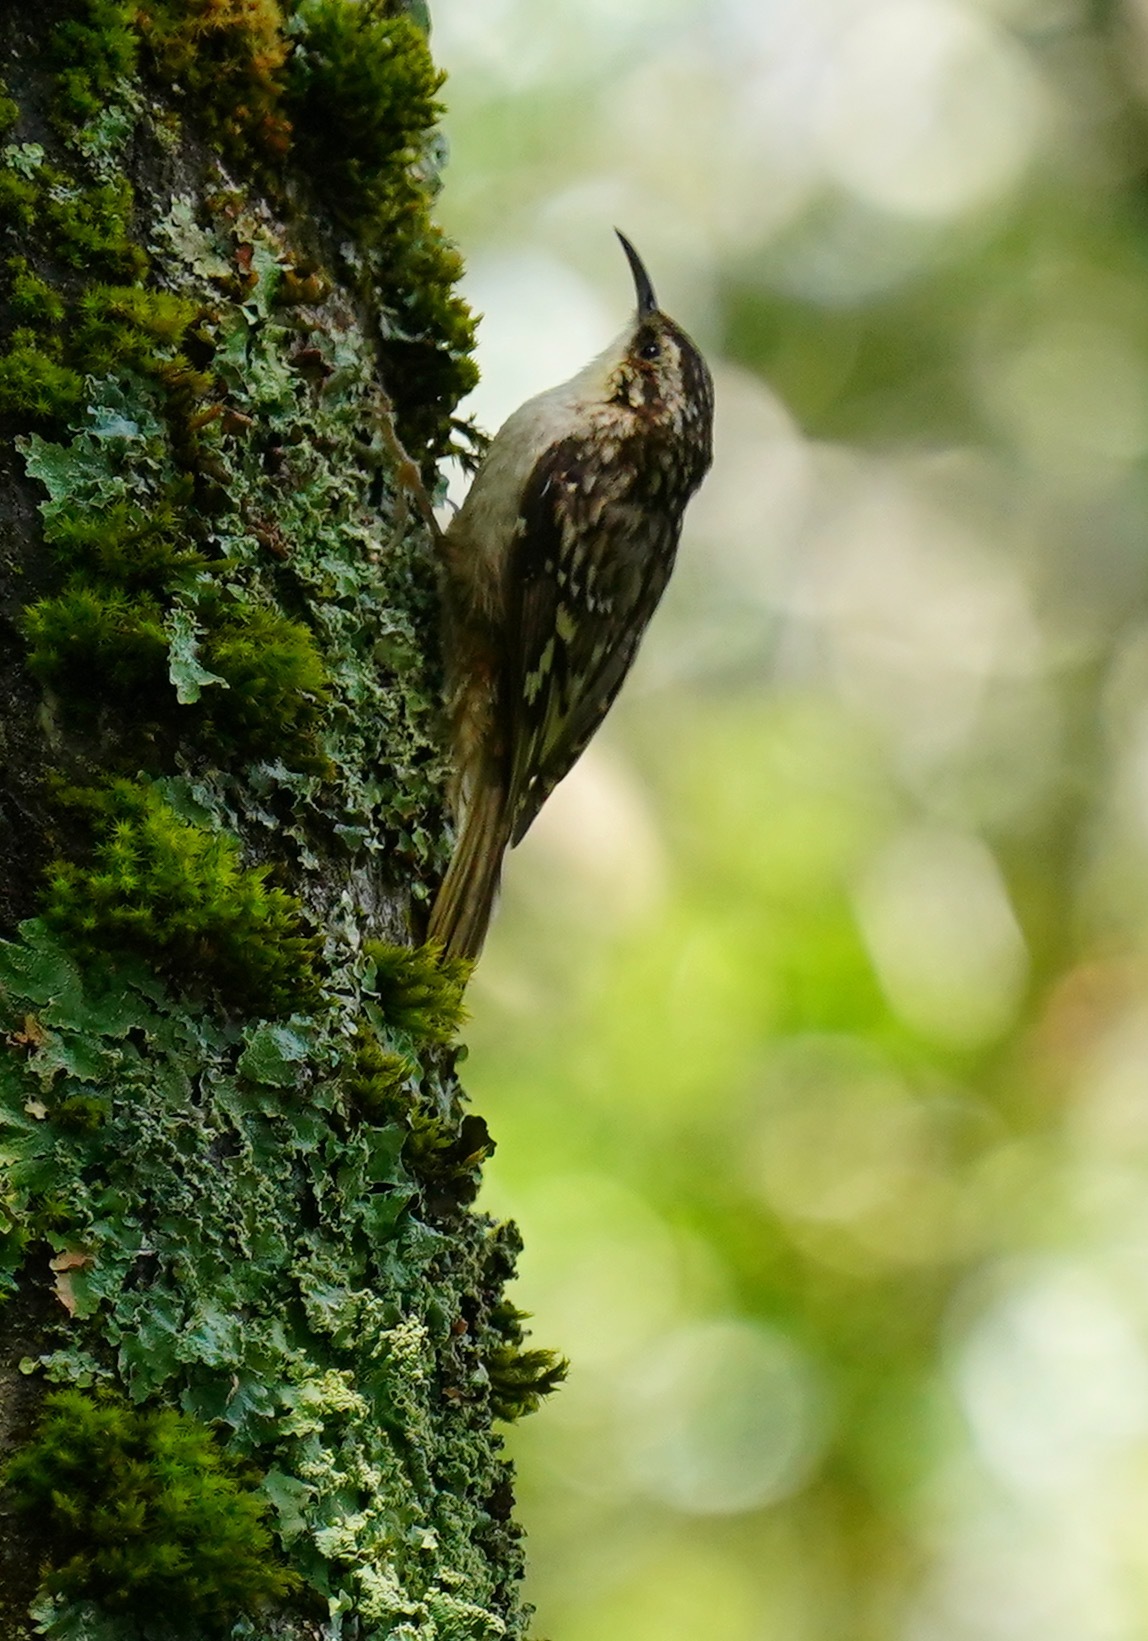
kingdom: Animalia
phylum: Chordata
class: Aves
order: Passeriformes
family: Certhiidae
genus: Certhia
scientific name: Certhia americana
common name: Brown creeper
